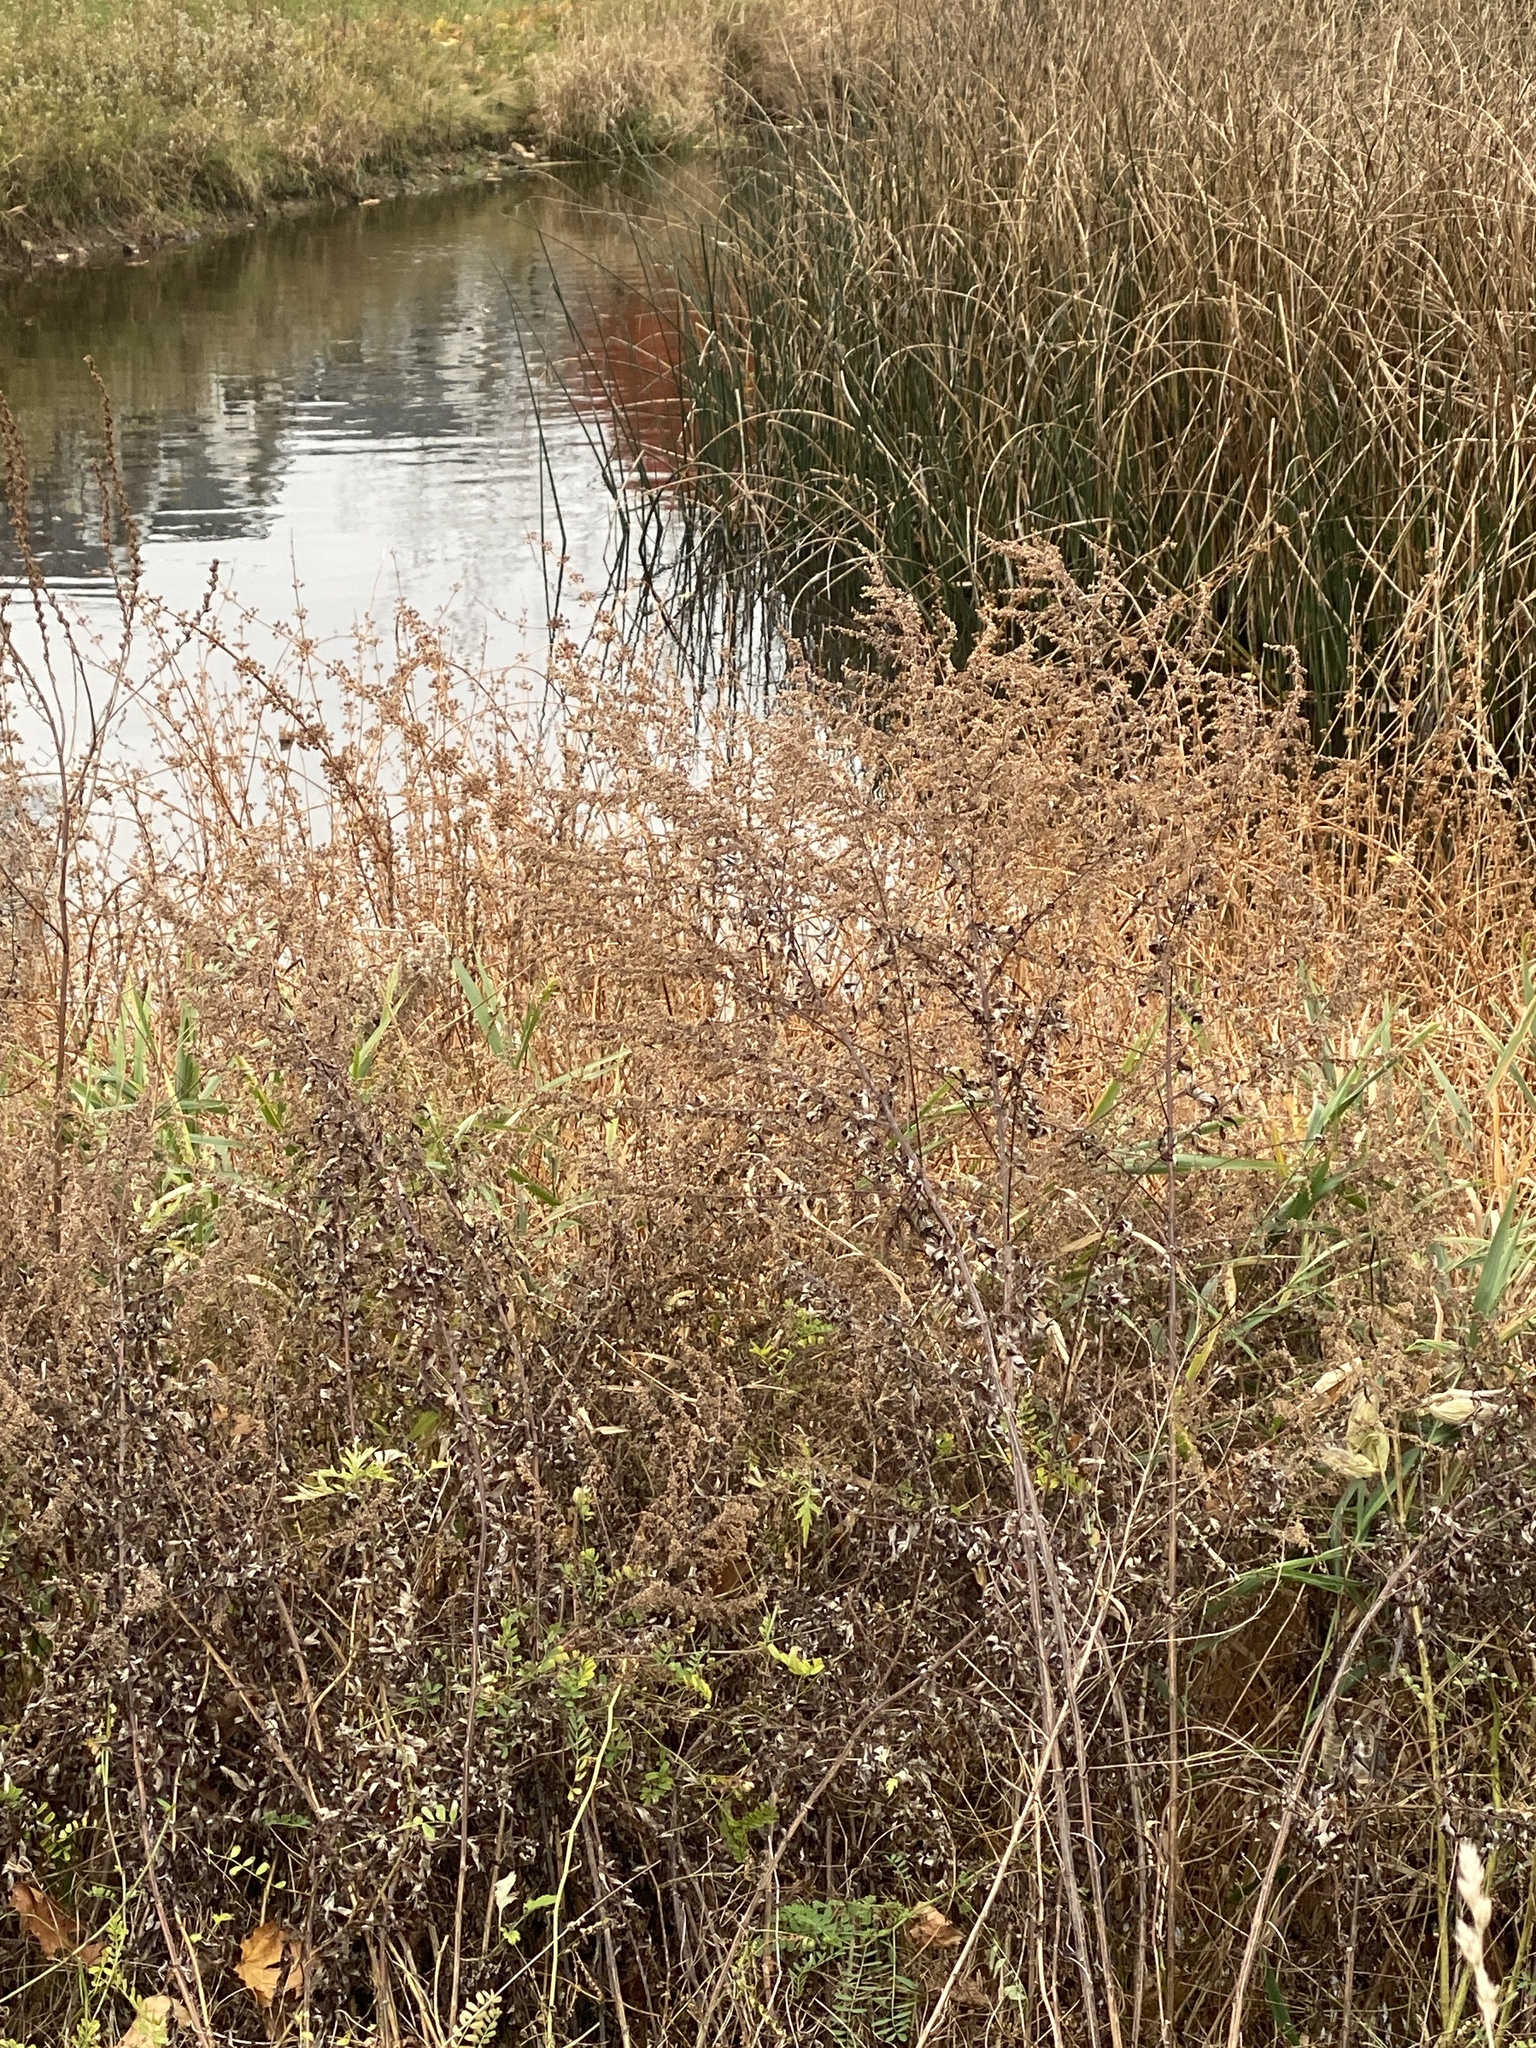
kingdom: Plantae
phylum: Tracheophyta
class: Magnoliopsida
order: Apiales
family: Apiaceae
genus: Daucus
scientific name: Daucus carota
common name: Wild carrot
